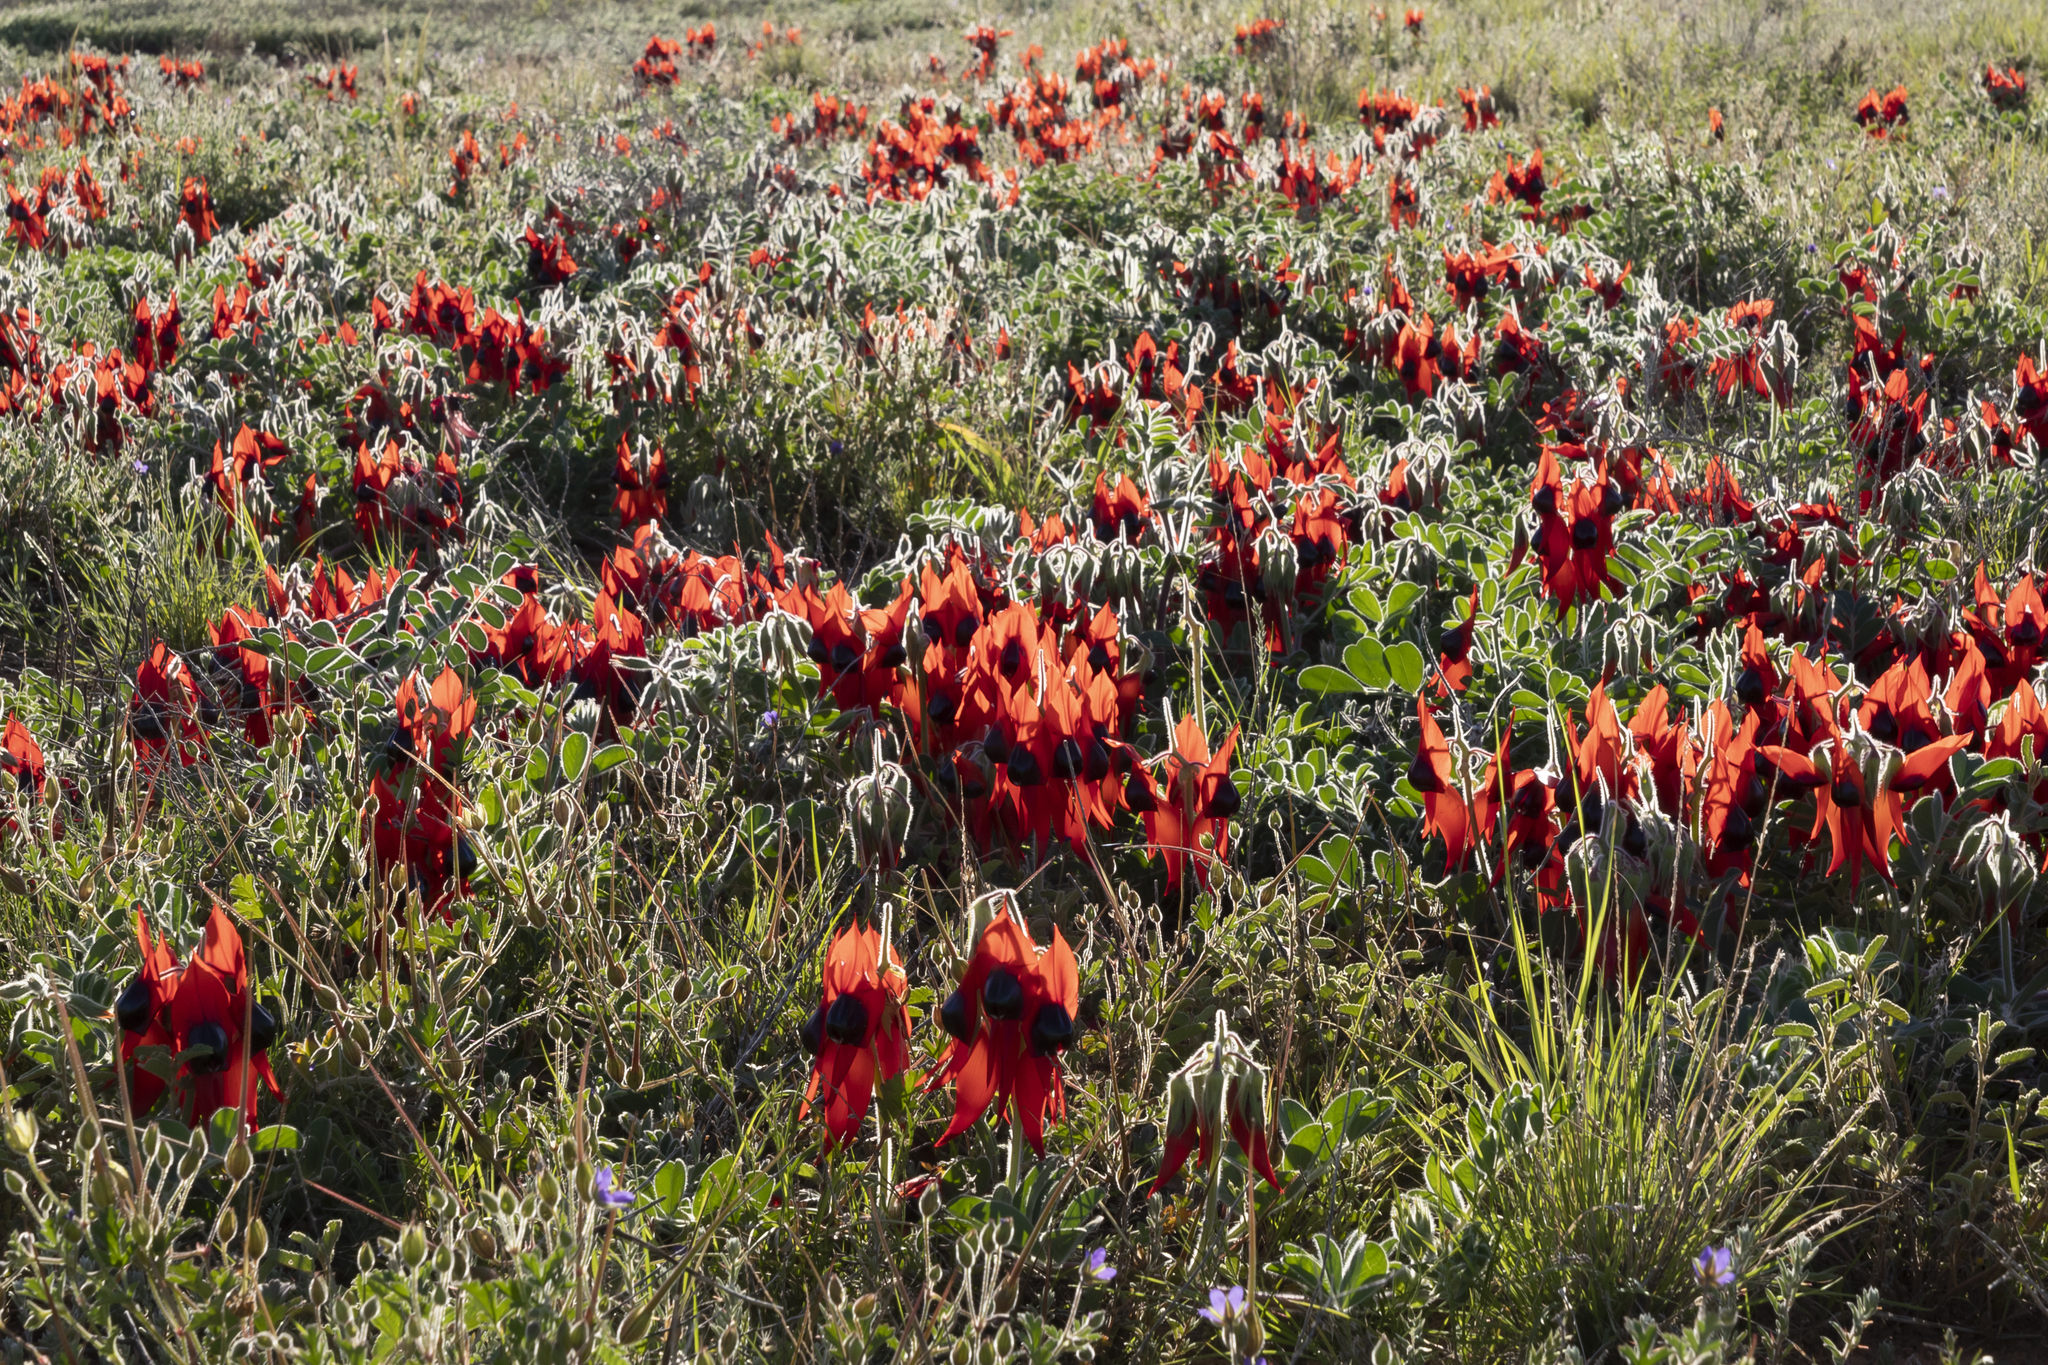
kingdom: Plantae
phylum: Tracheophyta
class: Magnoliopsida
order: Fabales
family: Fabaceae
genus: Swainsona
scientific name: Swainsona formosa
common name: Sturt's desert-pea
